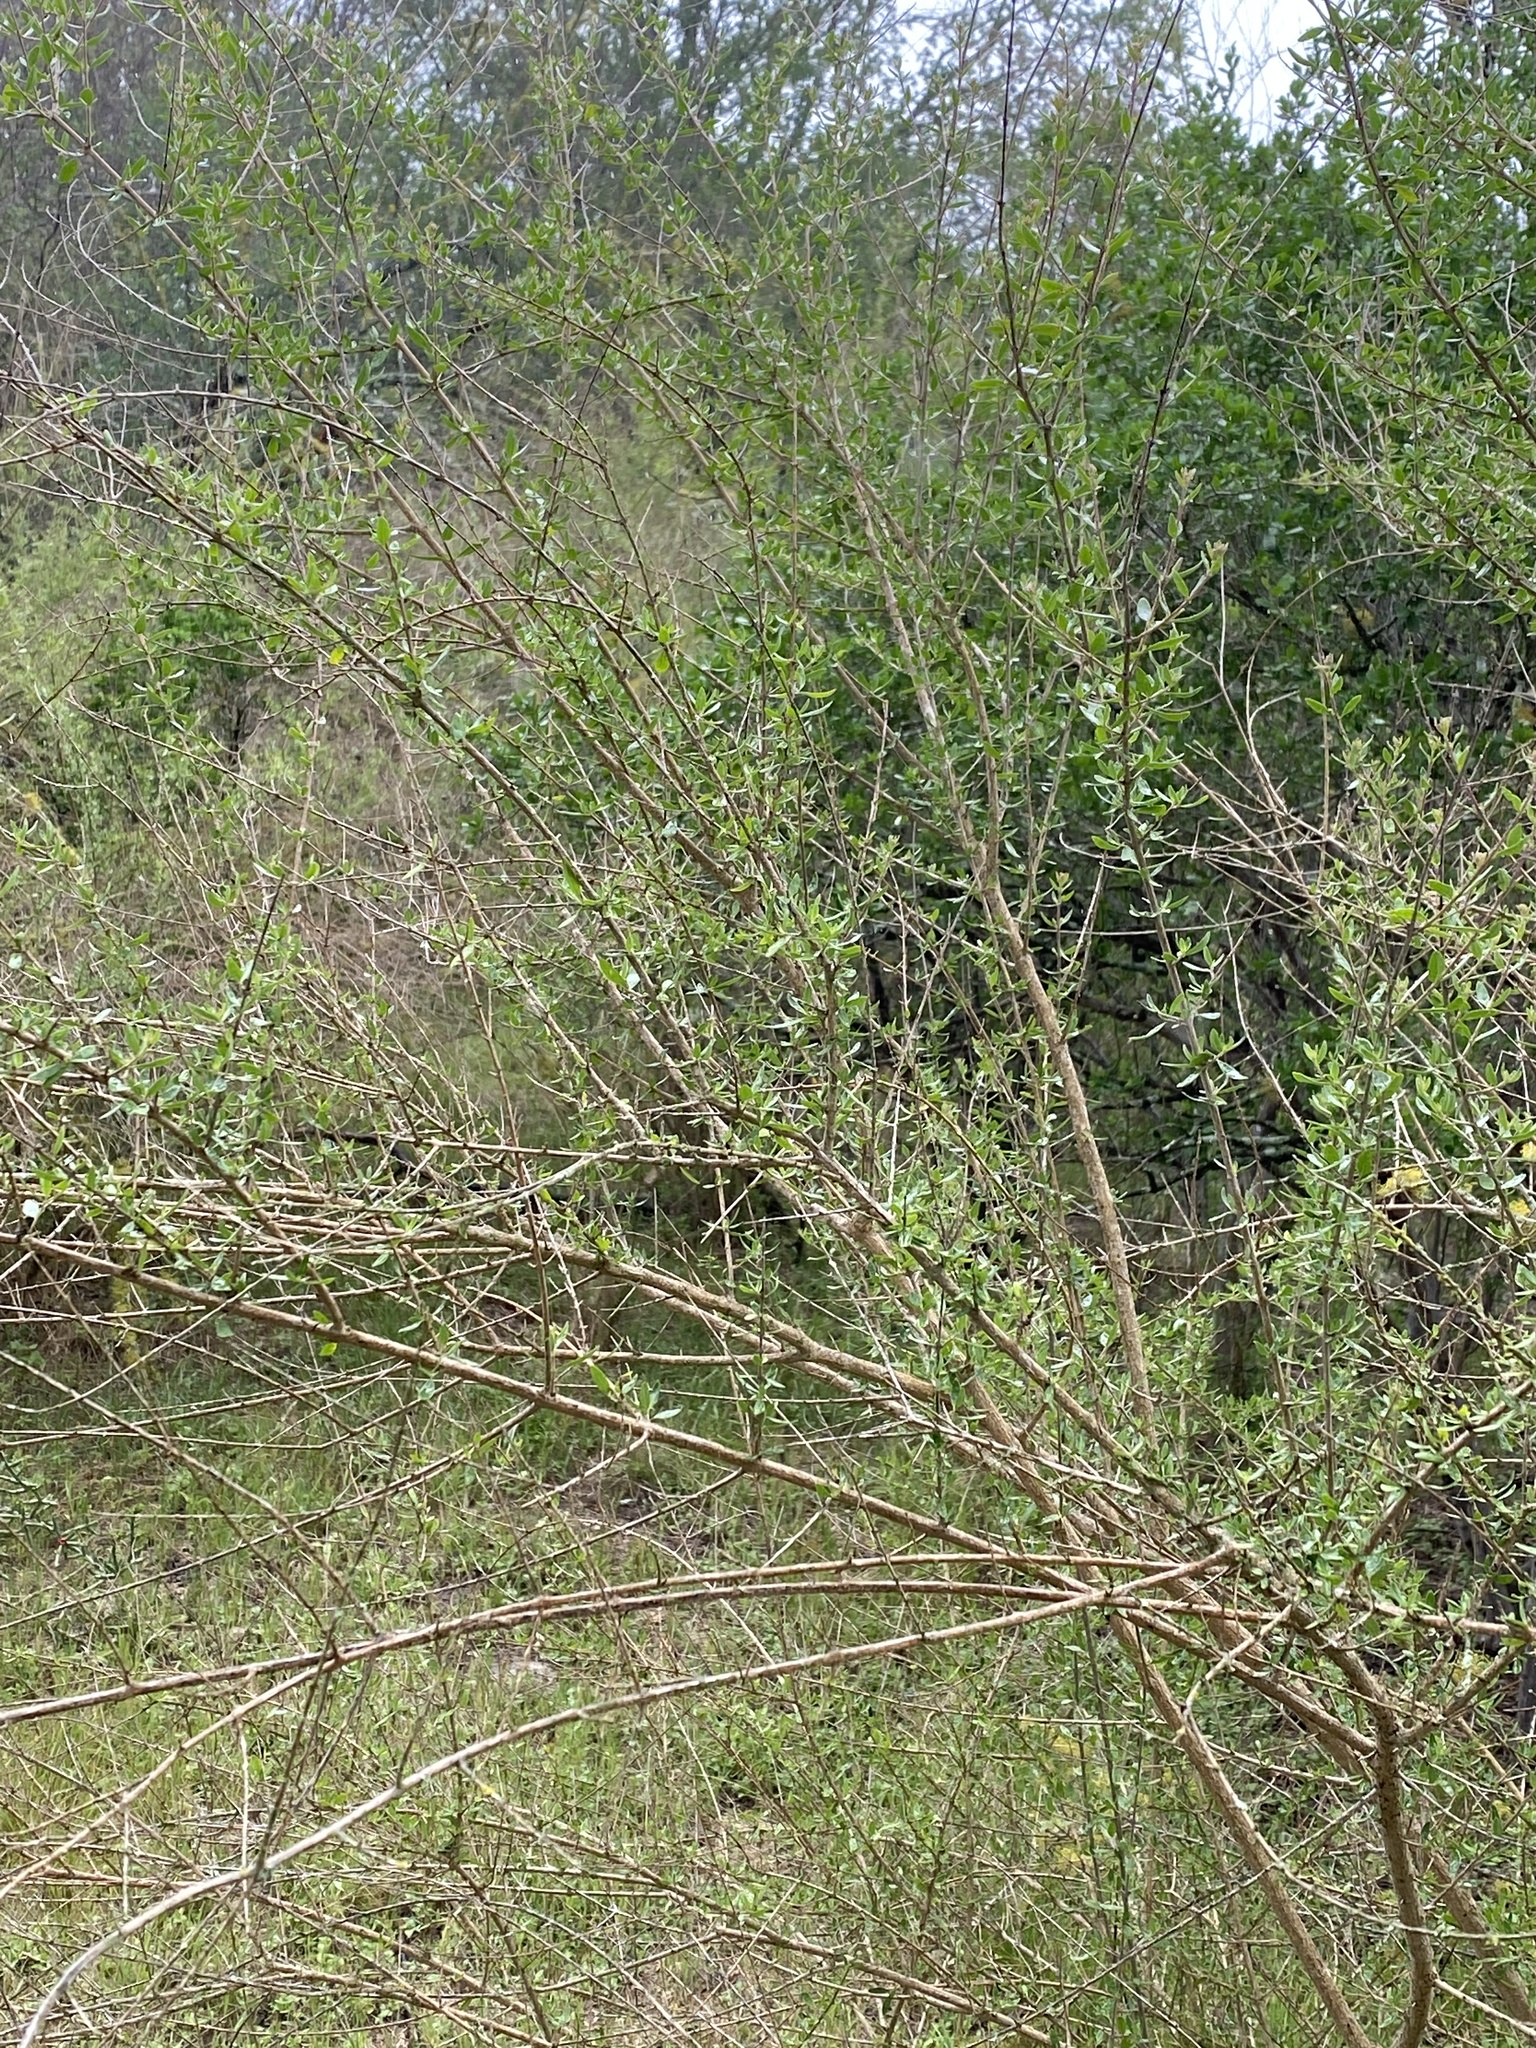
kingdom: Plantae
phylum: Tracheophyta
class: Magnoliopsida
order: Lamiales
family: Verbenaceae
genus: Aloysia
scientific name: Aloysia gratissima
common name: Common bee-brush
